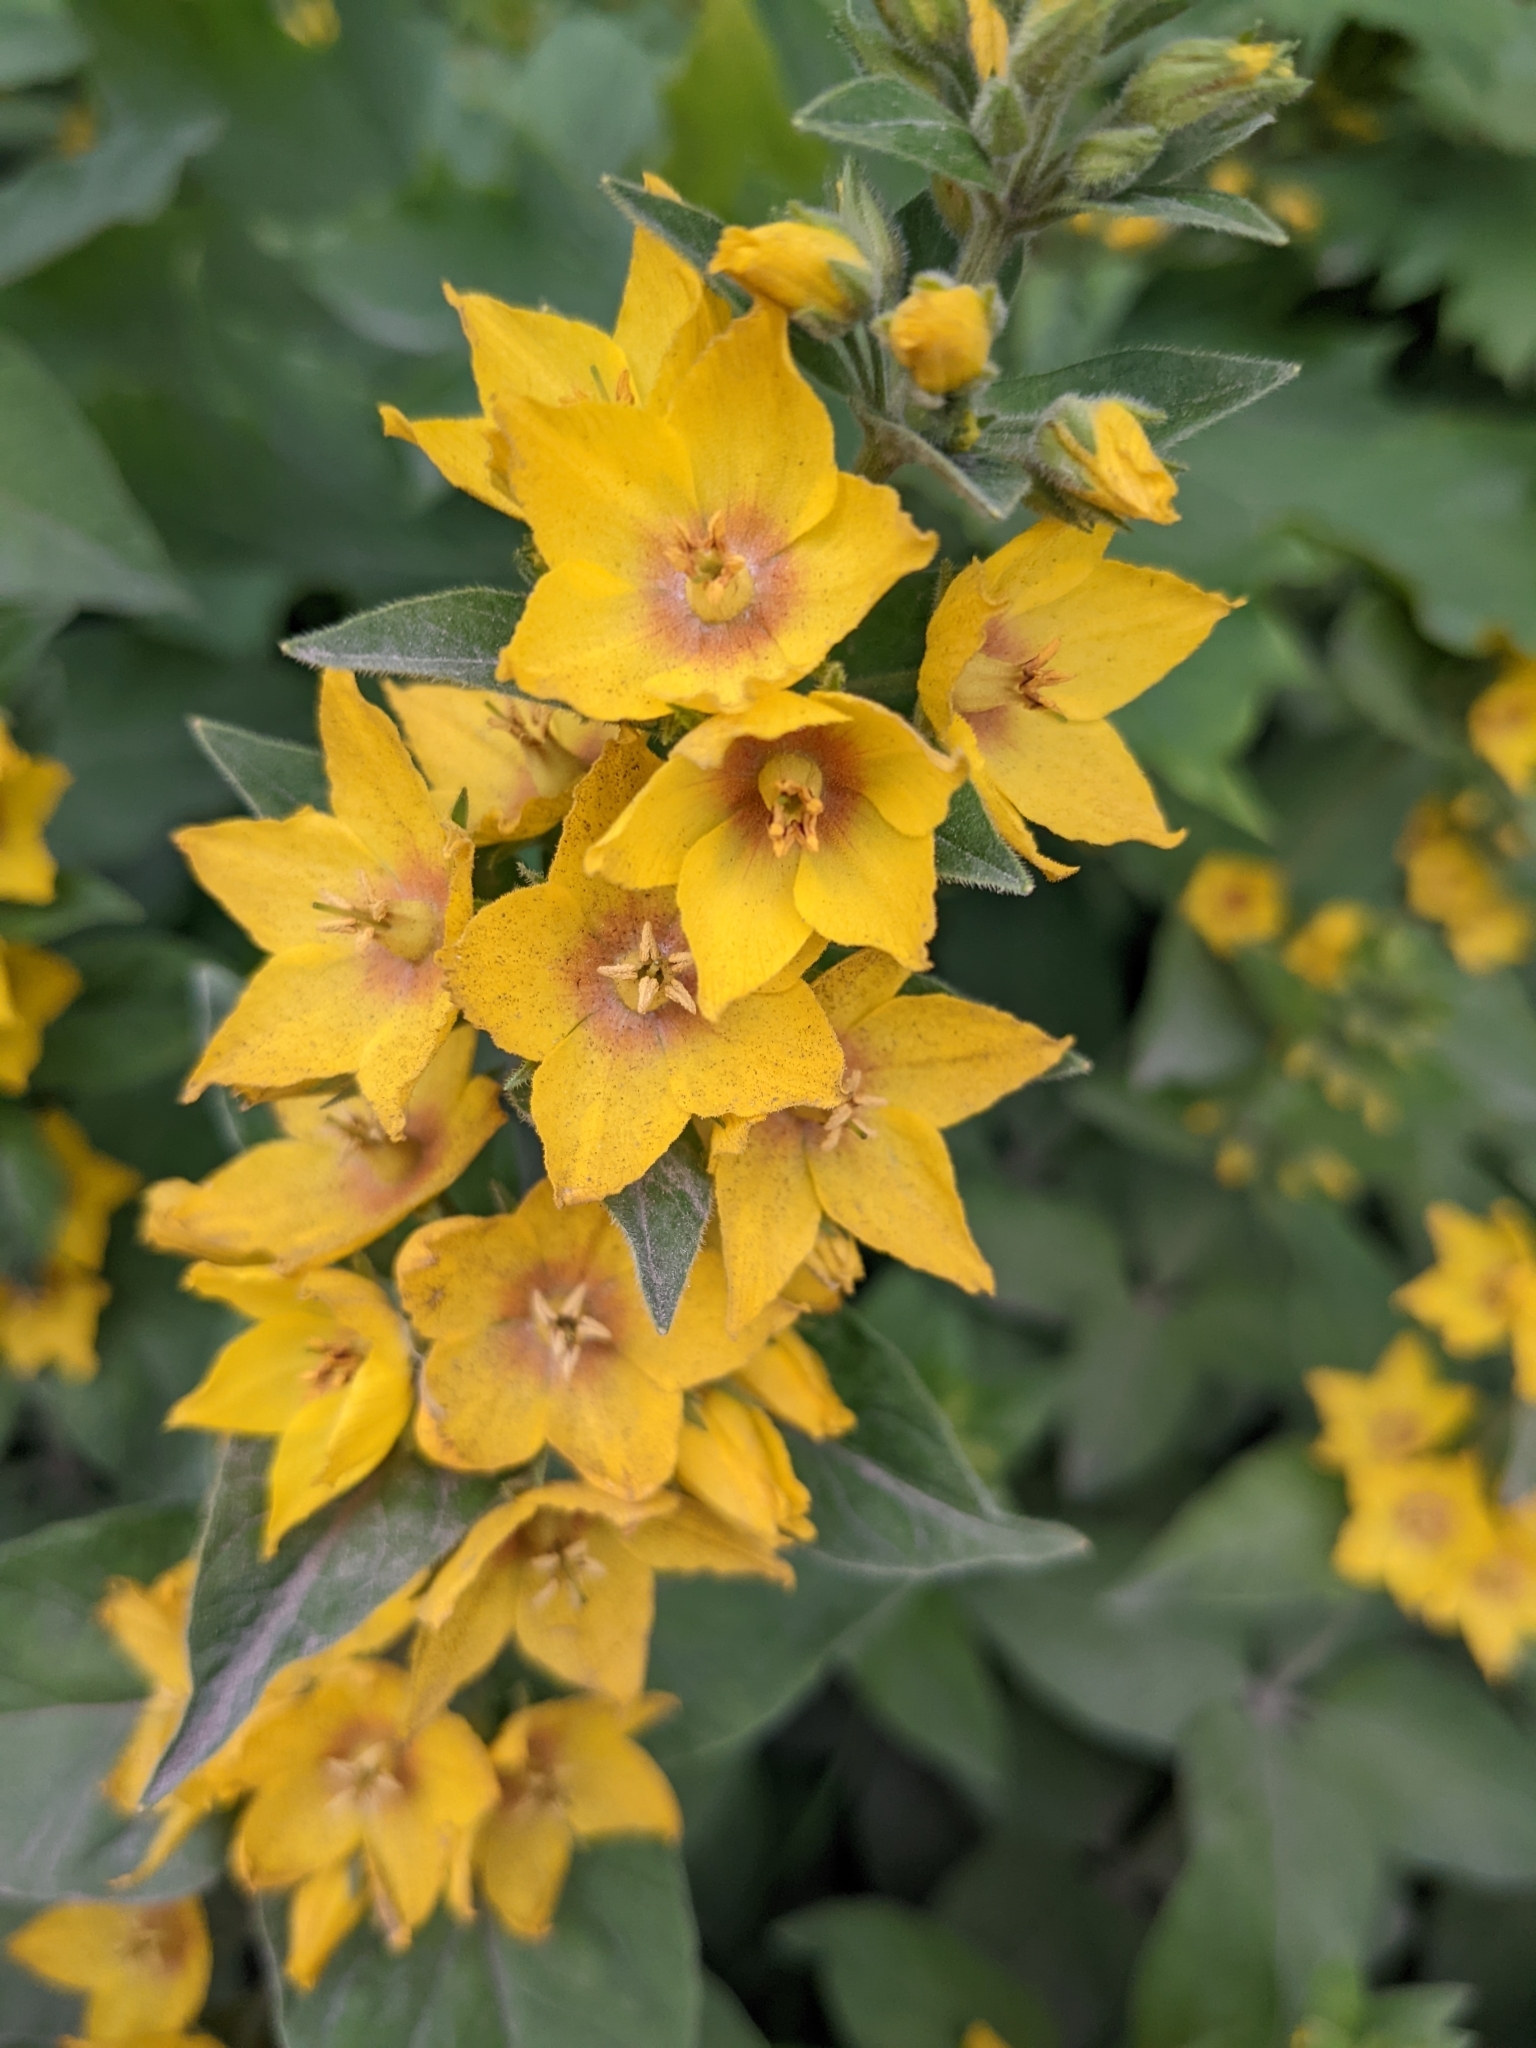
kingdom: Plantae
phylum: Tracheophyta
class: Magnoliopsida
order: Ericales
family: Primulaceae
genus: Lysimachia
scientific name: Lysimachia punctata
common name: Dotted loosestrife
